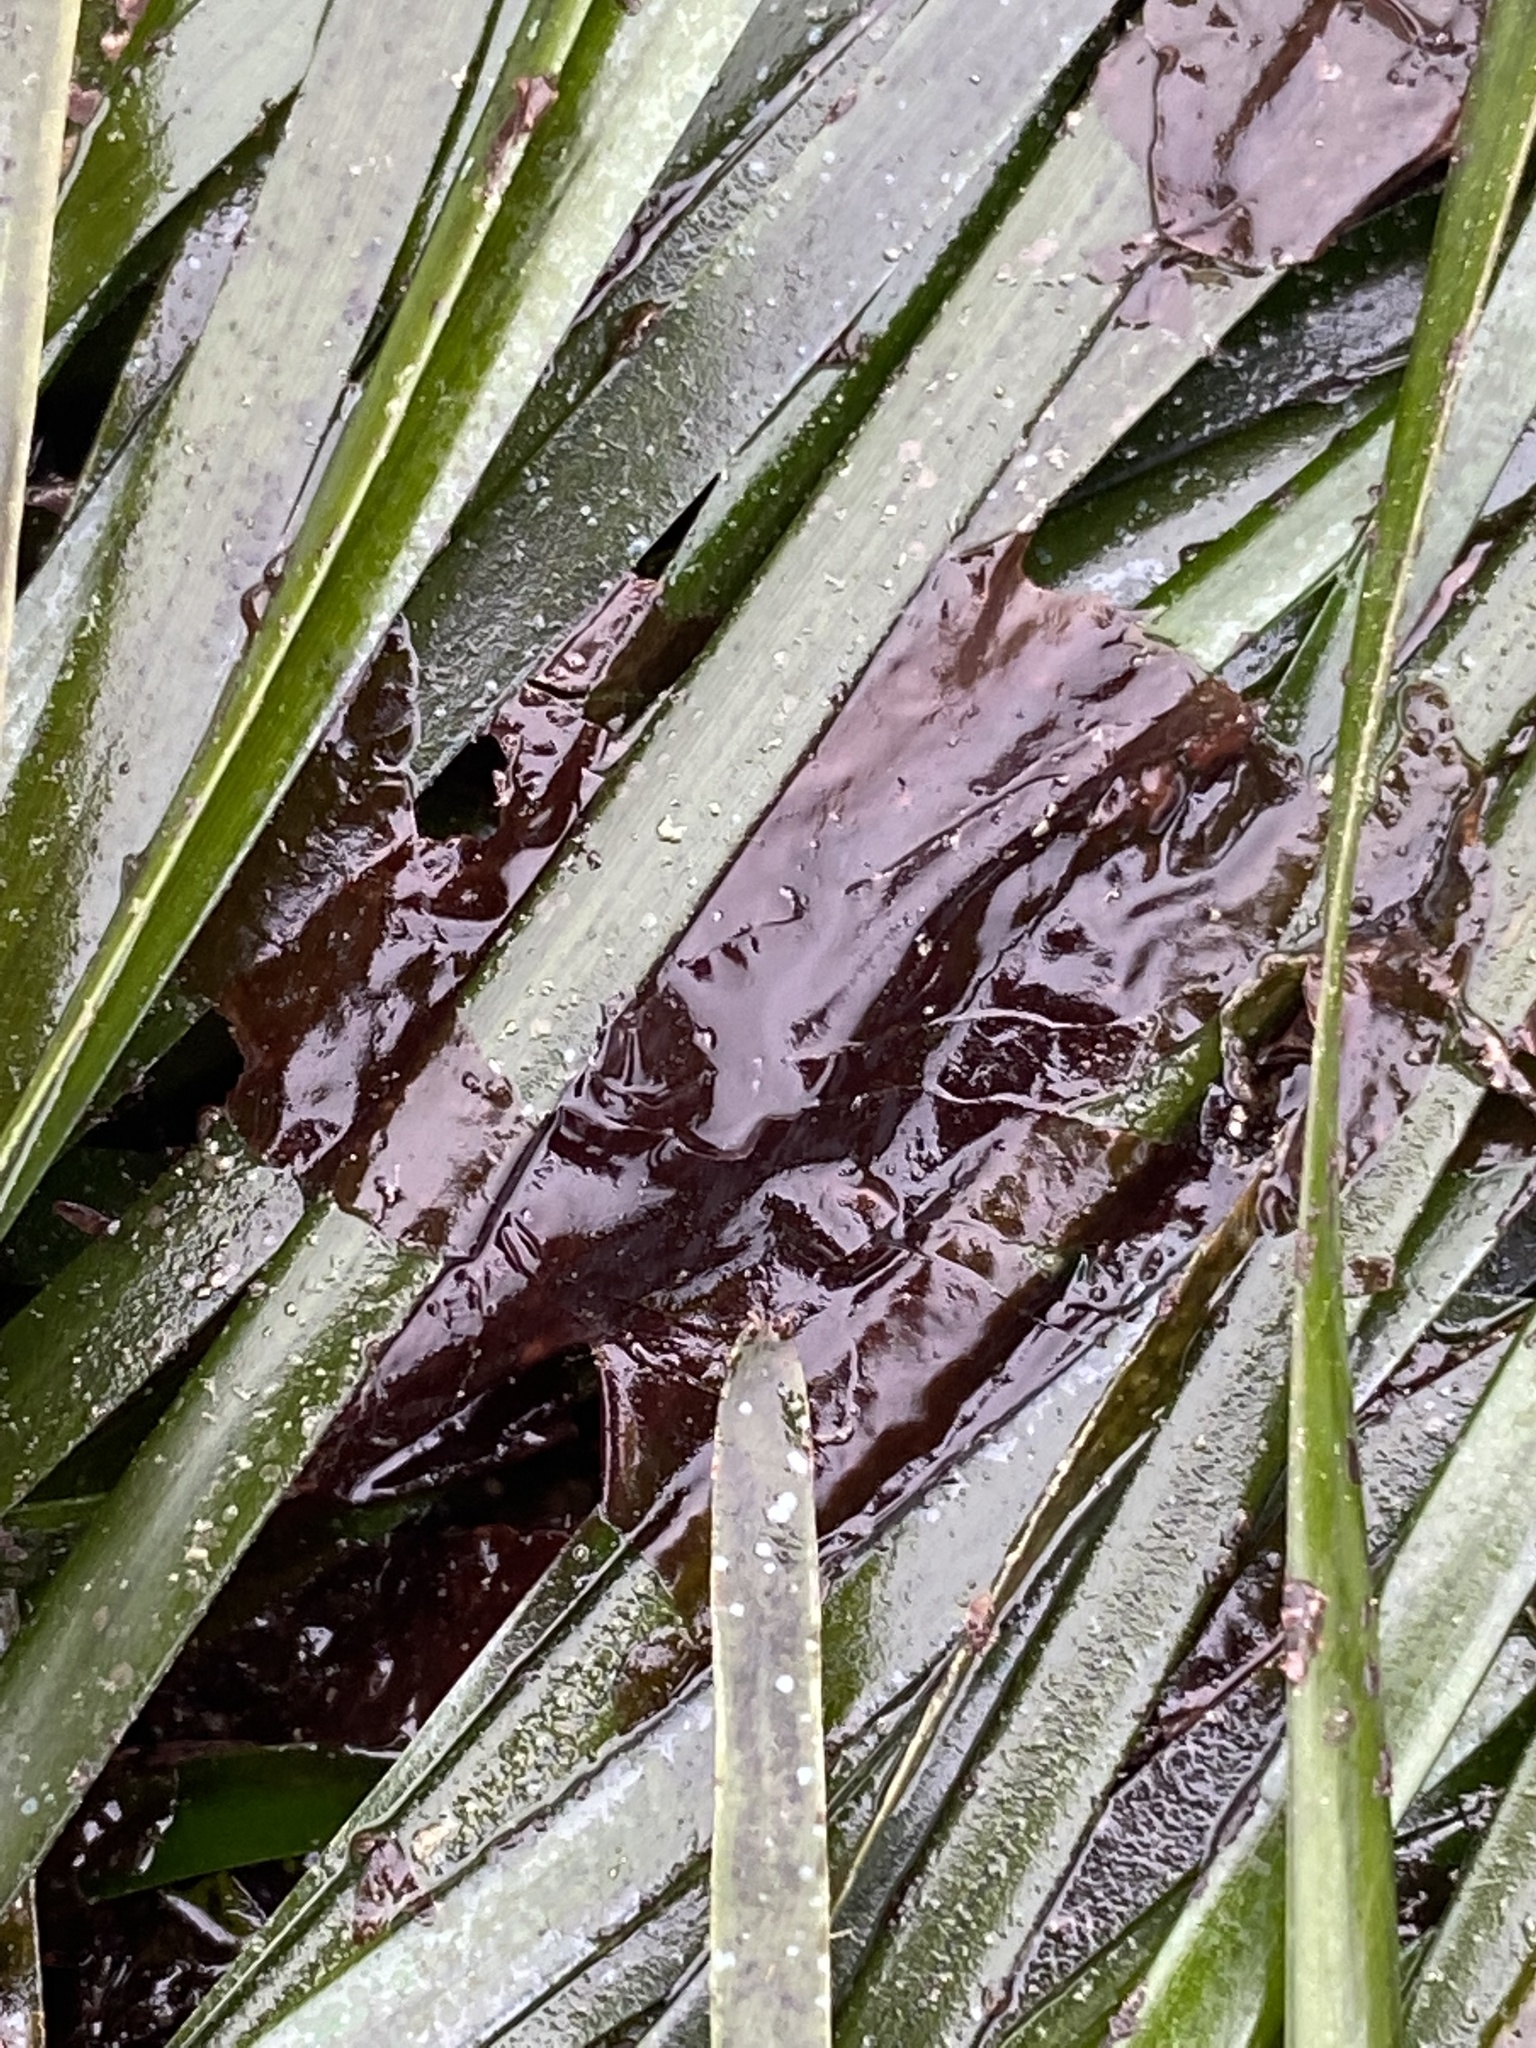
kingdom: Plantae
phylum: Tracheophyta
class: Liliopsida
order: Alismatales
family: Zosteraceae
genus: Phyllospadix
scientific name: Phyllospadix scouleri
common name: Species code: ps
